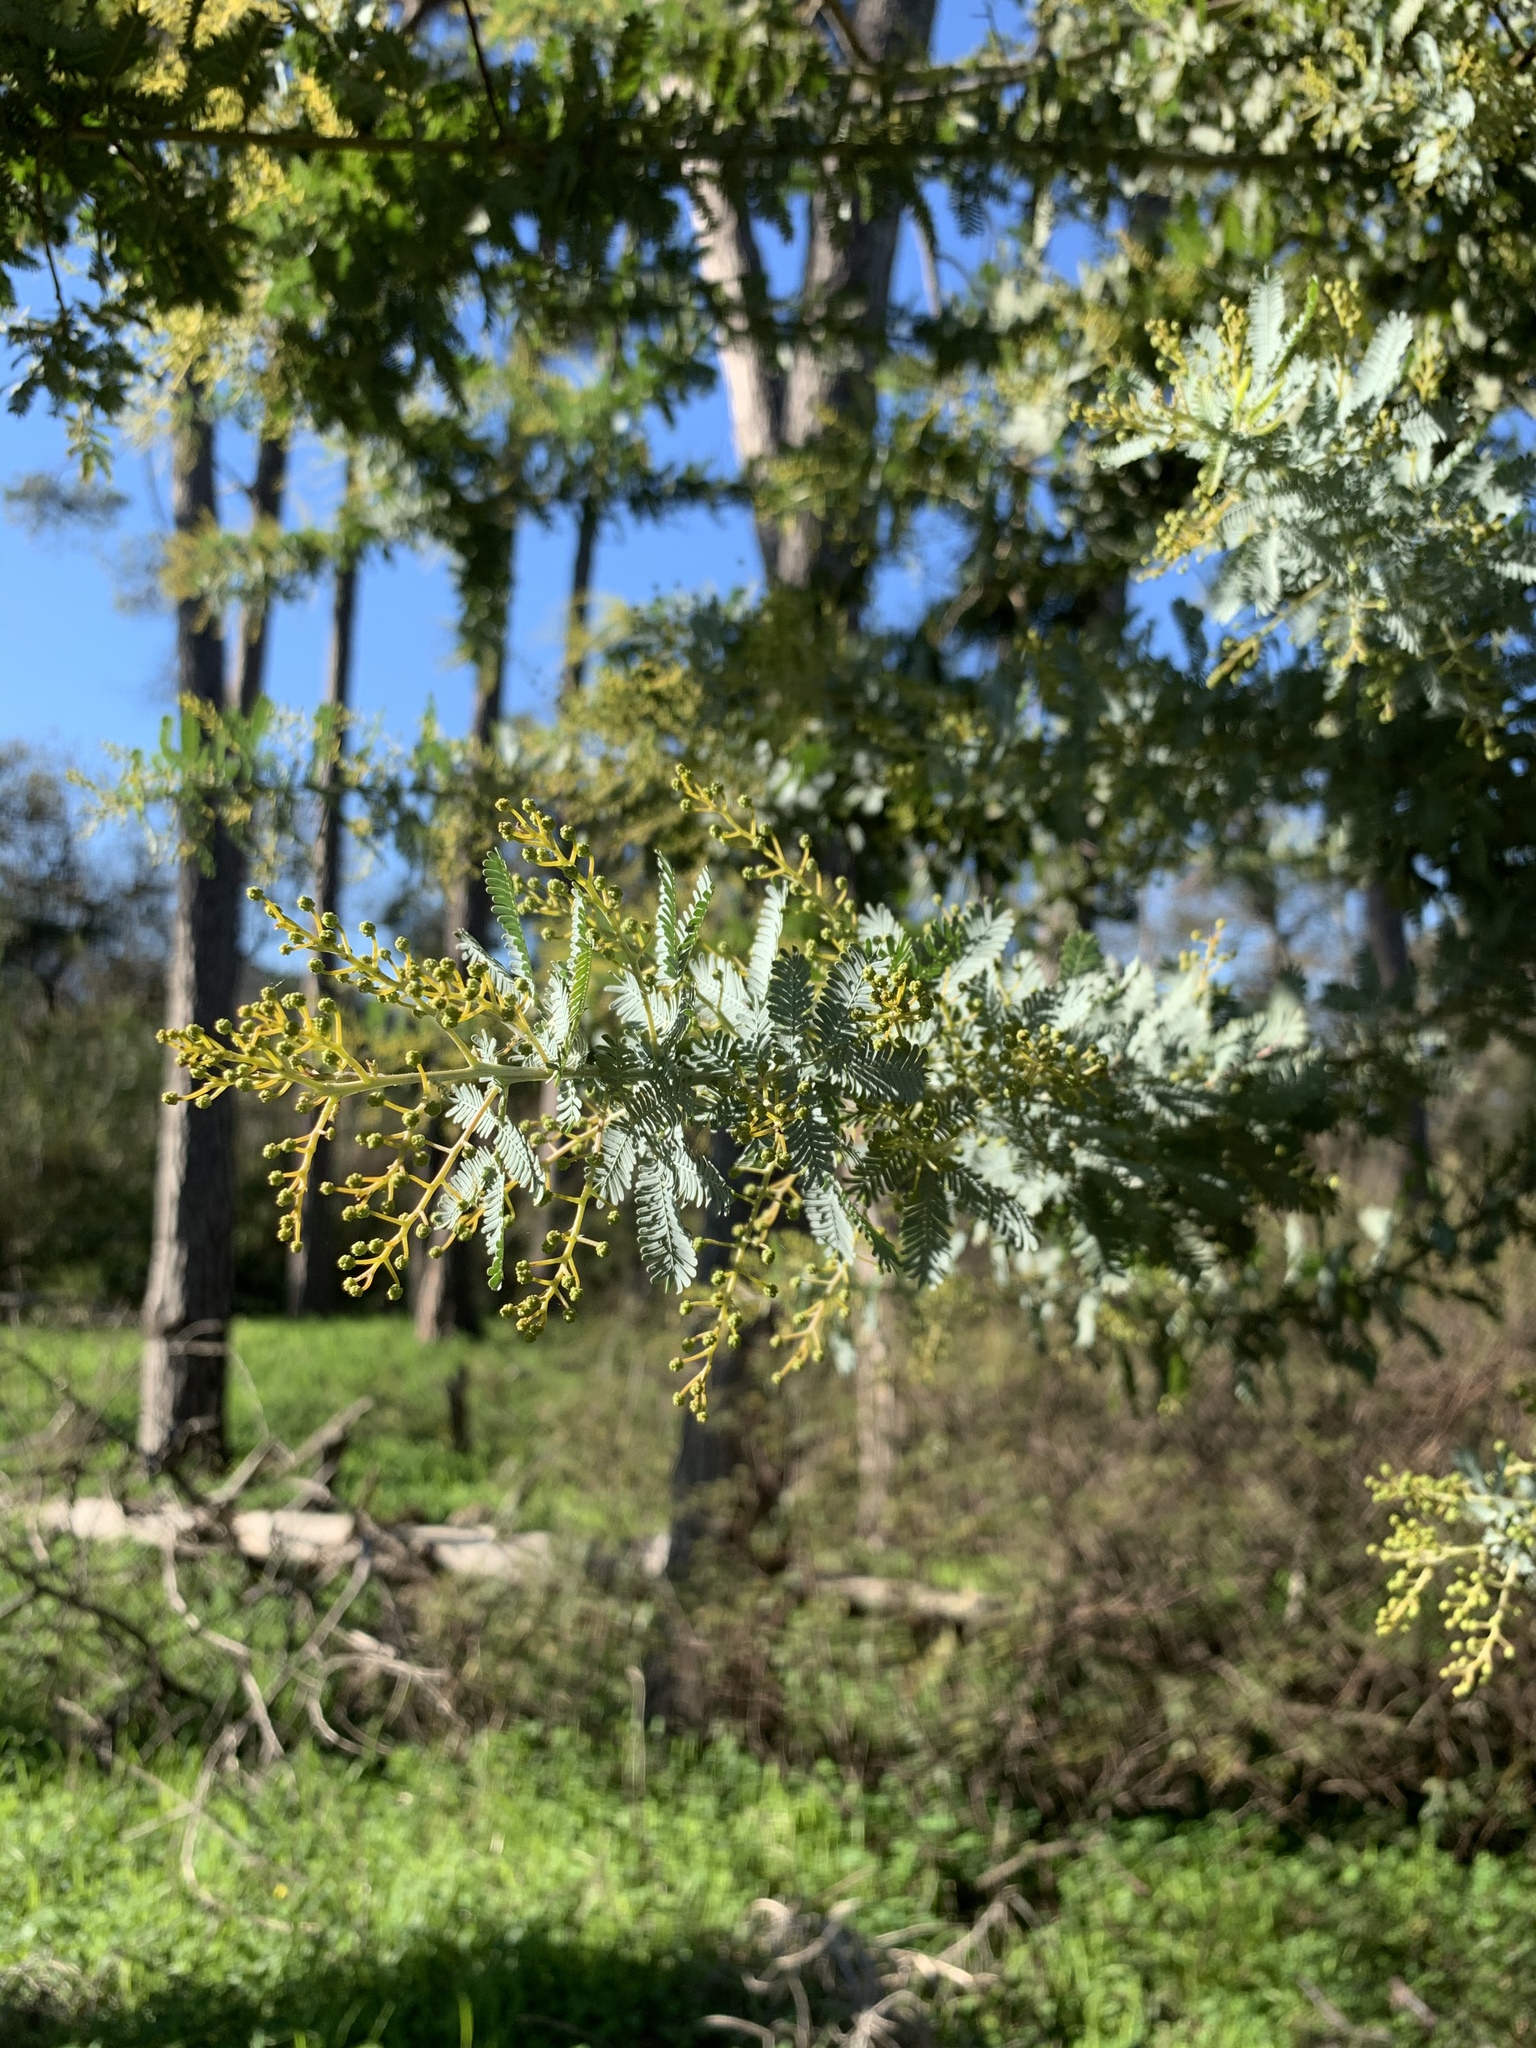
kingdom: Plantae
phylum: Tracheophyta
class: Magnoliopsida
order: Fabales
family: Fabaceae
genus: Acacia
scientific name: Acacia baileyana
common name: Cootamundra wattle
